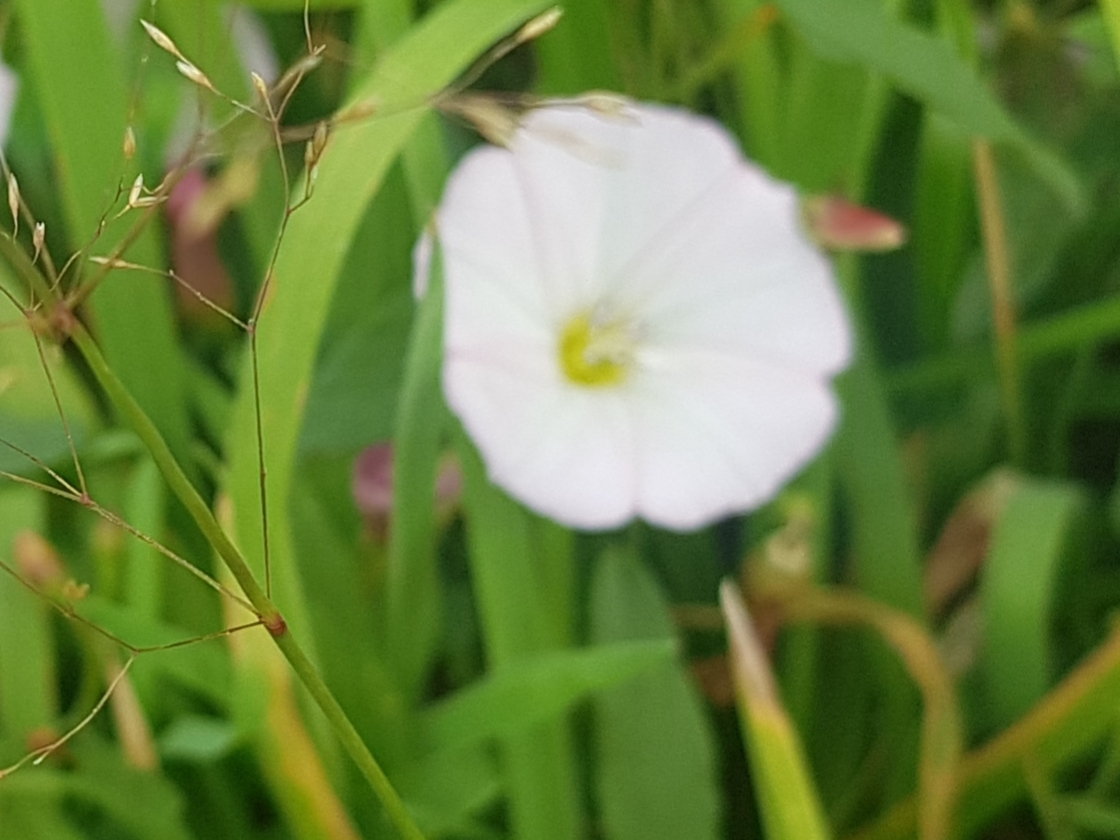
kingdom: Plantae
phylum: Tracheophyta
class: Magnoliopsida
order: Solanales
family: Convolvulaceae
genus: Convolvulus
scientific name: Convolvulus arvensis
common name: Field bindweed
